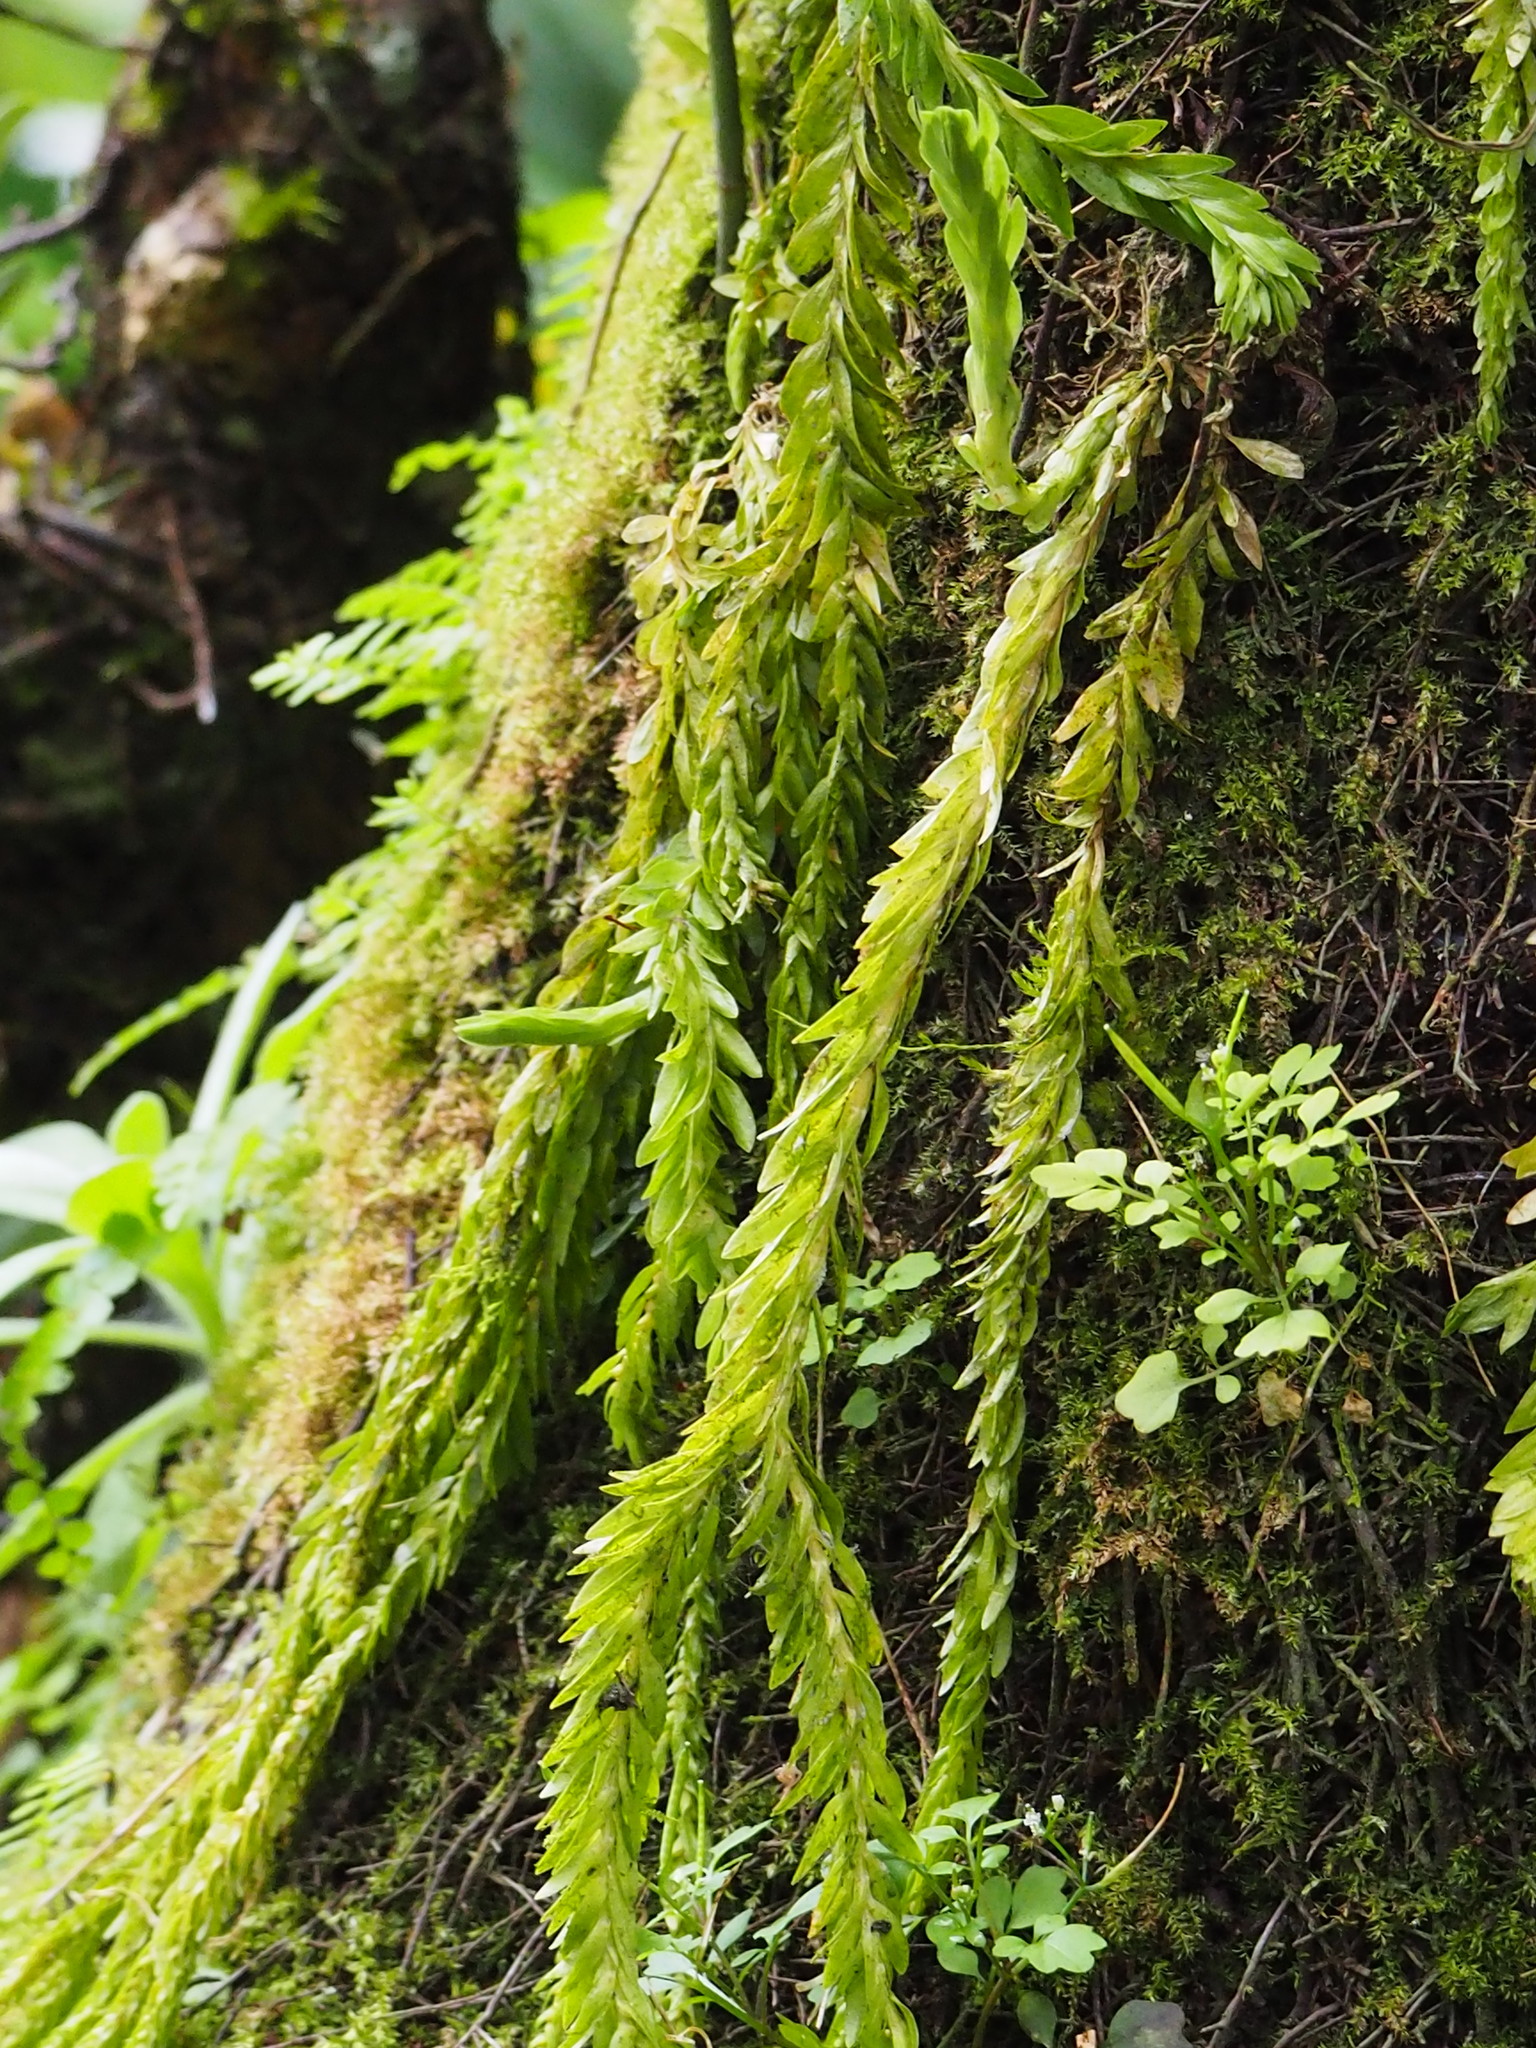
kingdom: Plantae
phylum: Tracheophyta
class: Lycopodiopsida
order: Lycopodiales
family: Lycopodiaceae
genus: Phlegmariurus
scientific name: Phlegmariurus fordii
